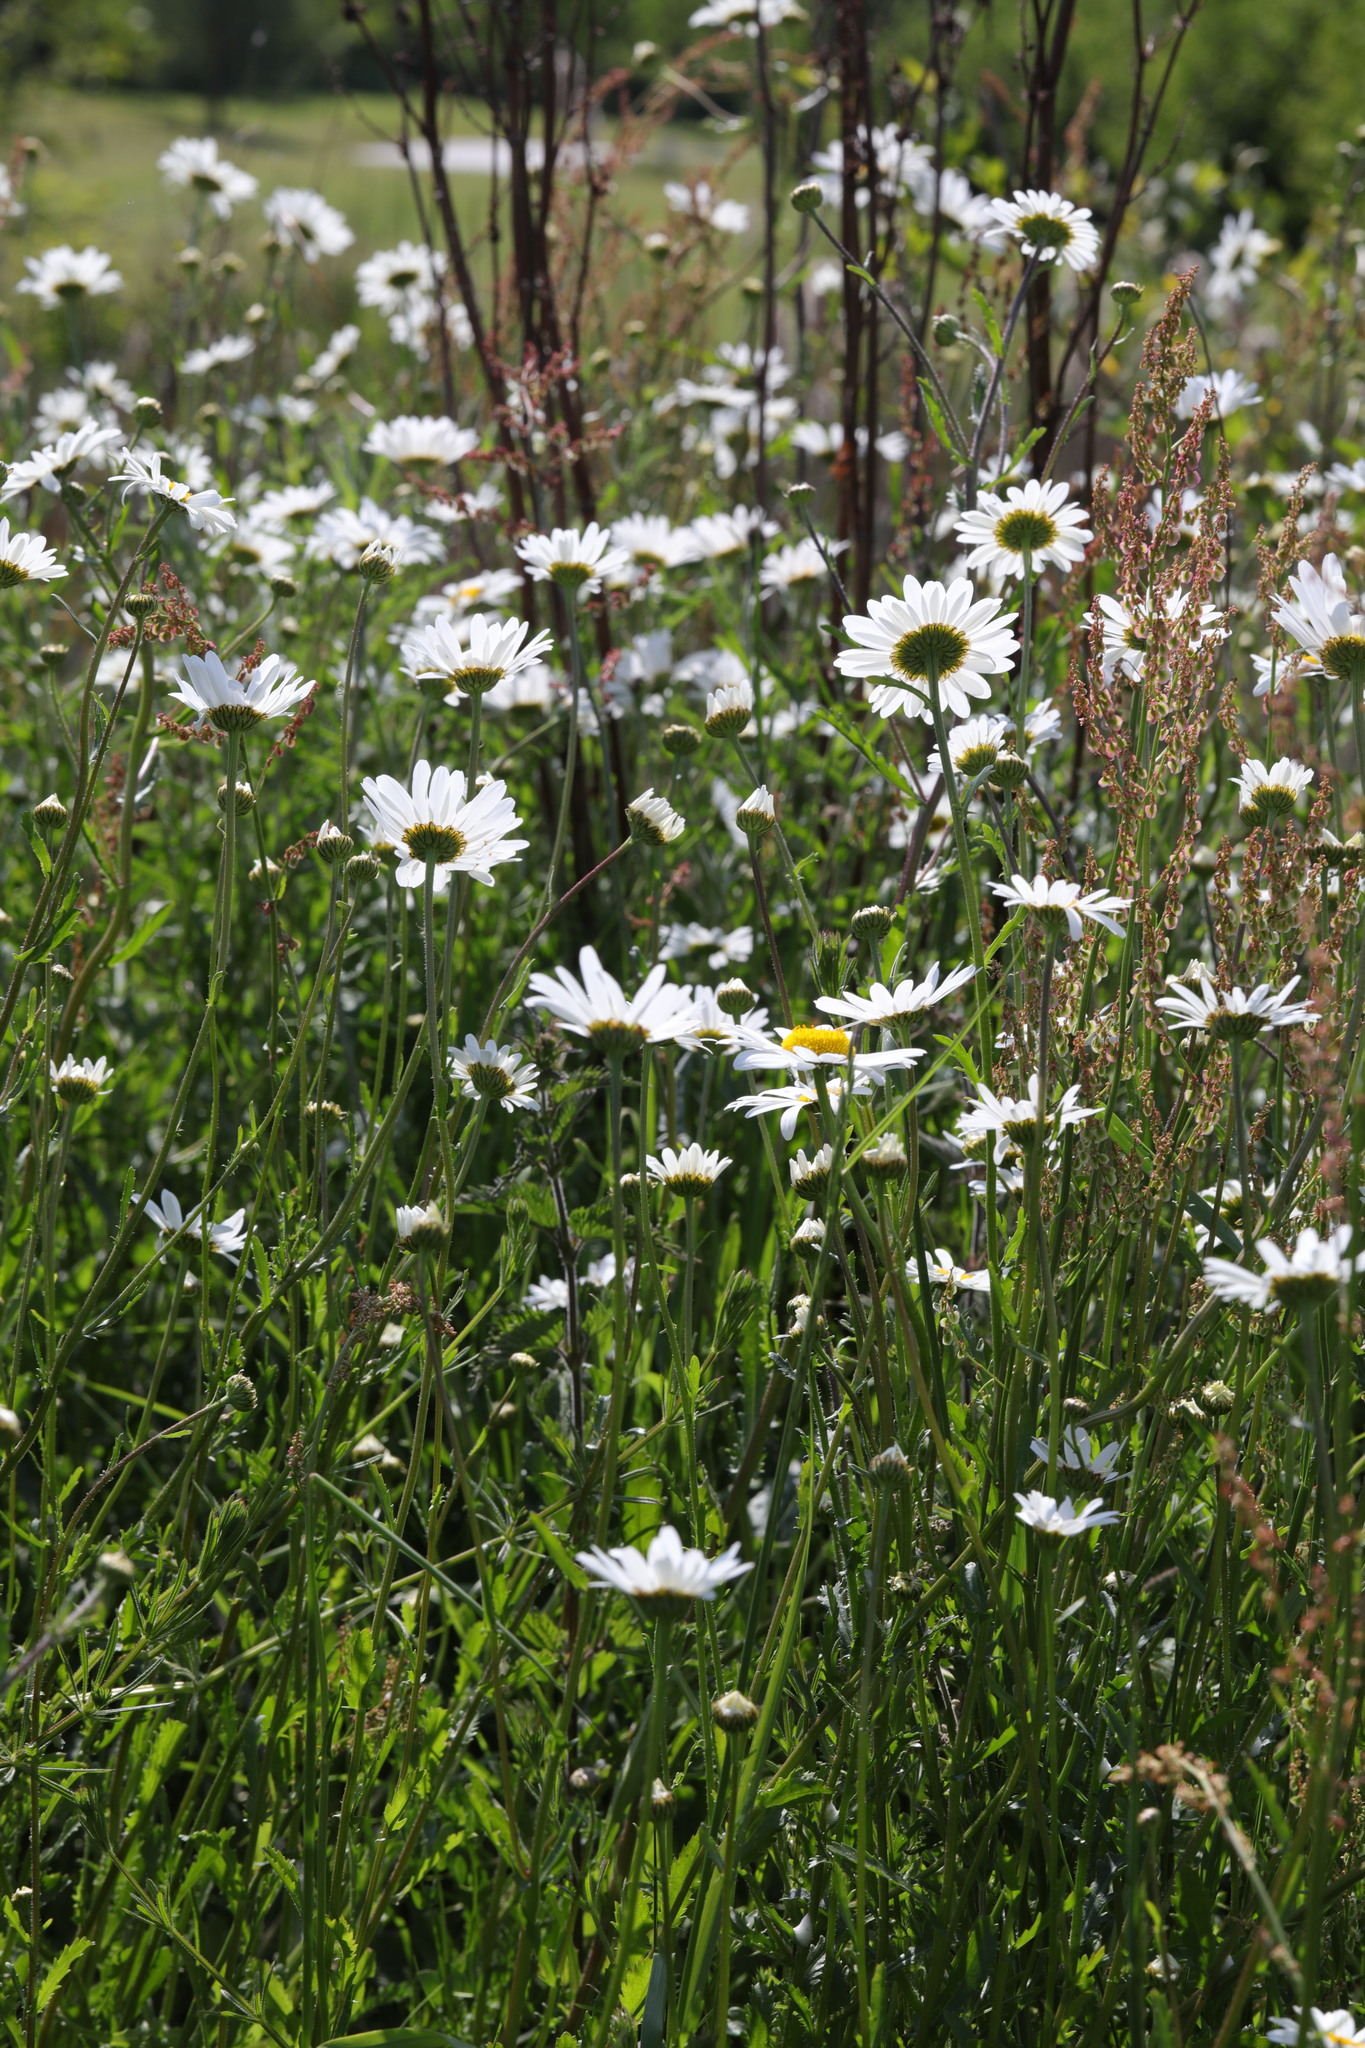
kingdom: Plantae
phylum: Tracheophyta
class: Magnoliopsida
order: Asterales
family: Asteraceae
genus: Leucanthemum
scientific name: Leucanthemum vulgare
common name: Oxeye daisy
